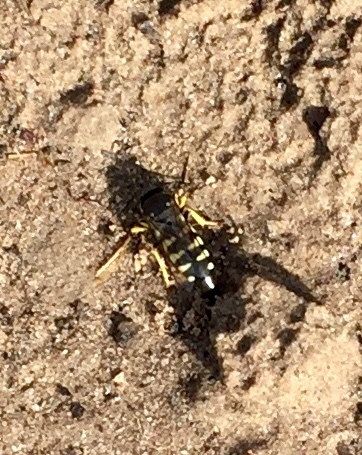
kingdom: Animalia
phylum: Arthropoda
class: Insecta
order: Hymenoptera
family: Crabronidae
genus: Bicyrtes
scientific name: Bicyrtes quadrifasciatus
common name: Four-banded stink bug hunter wasp
